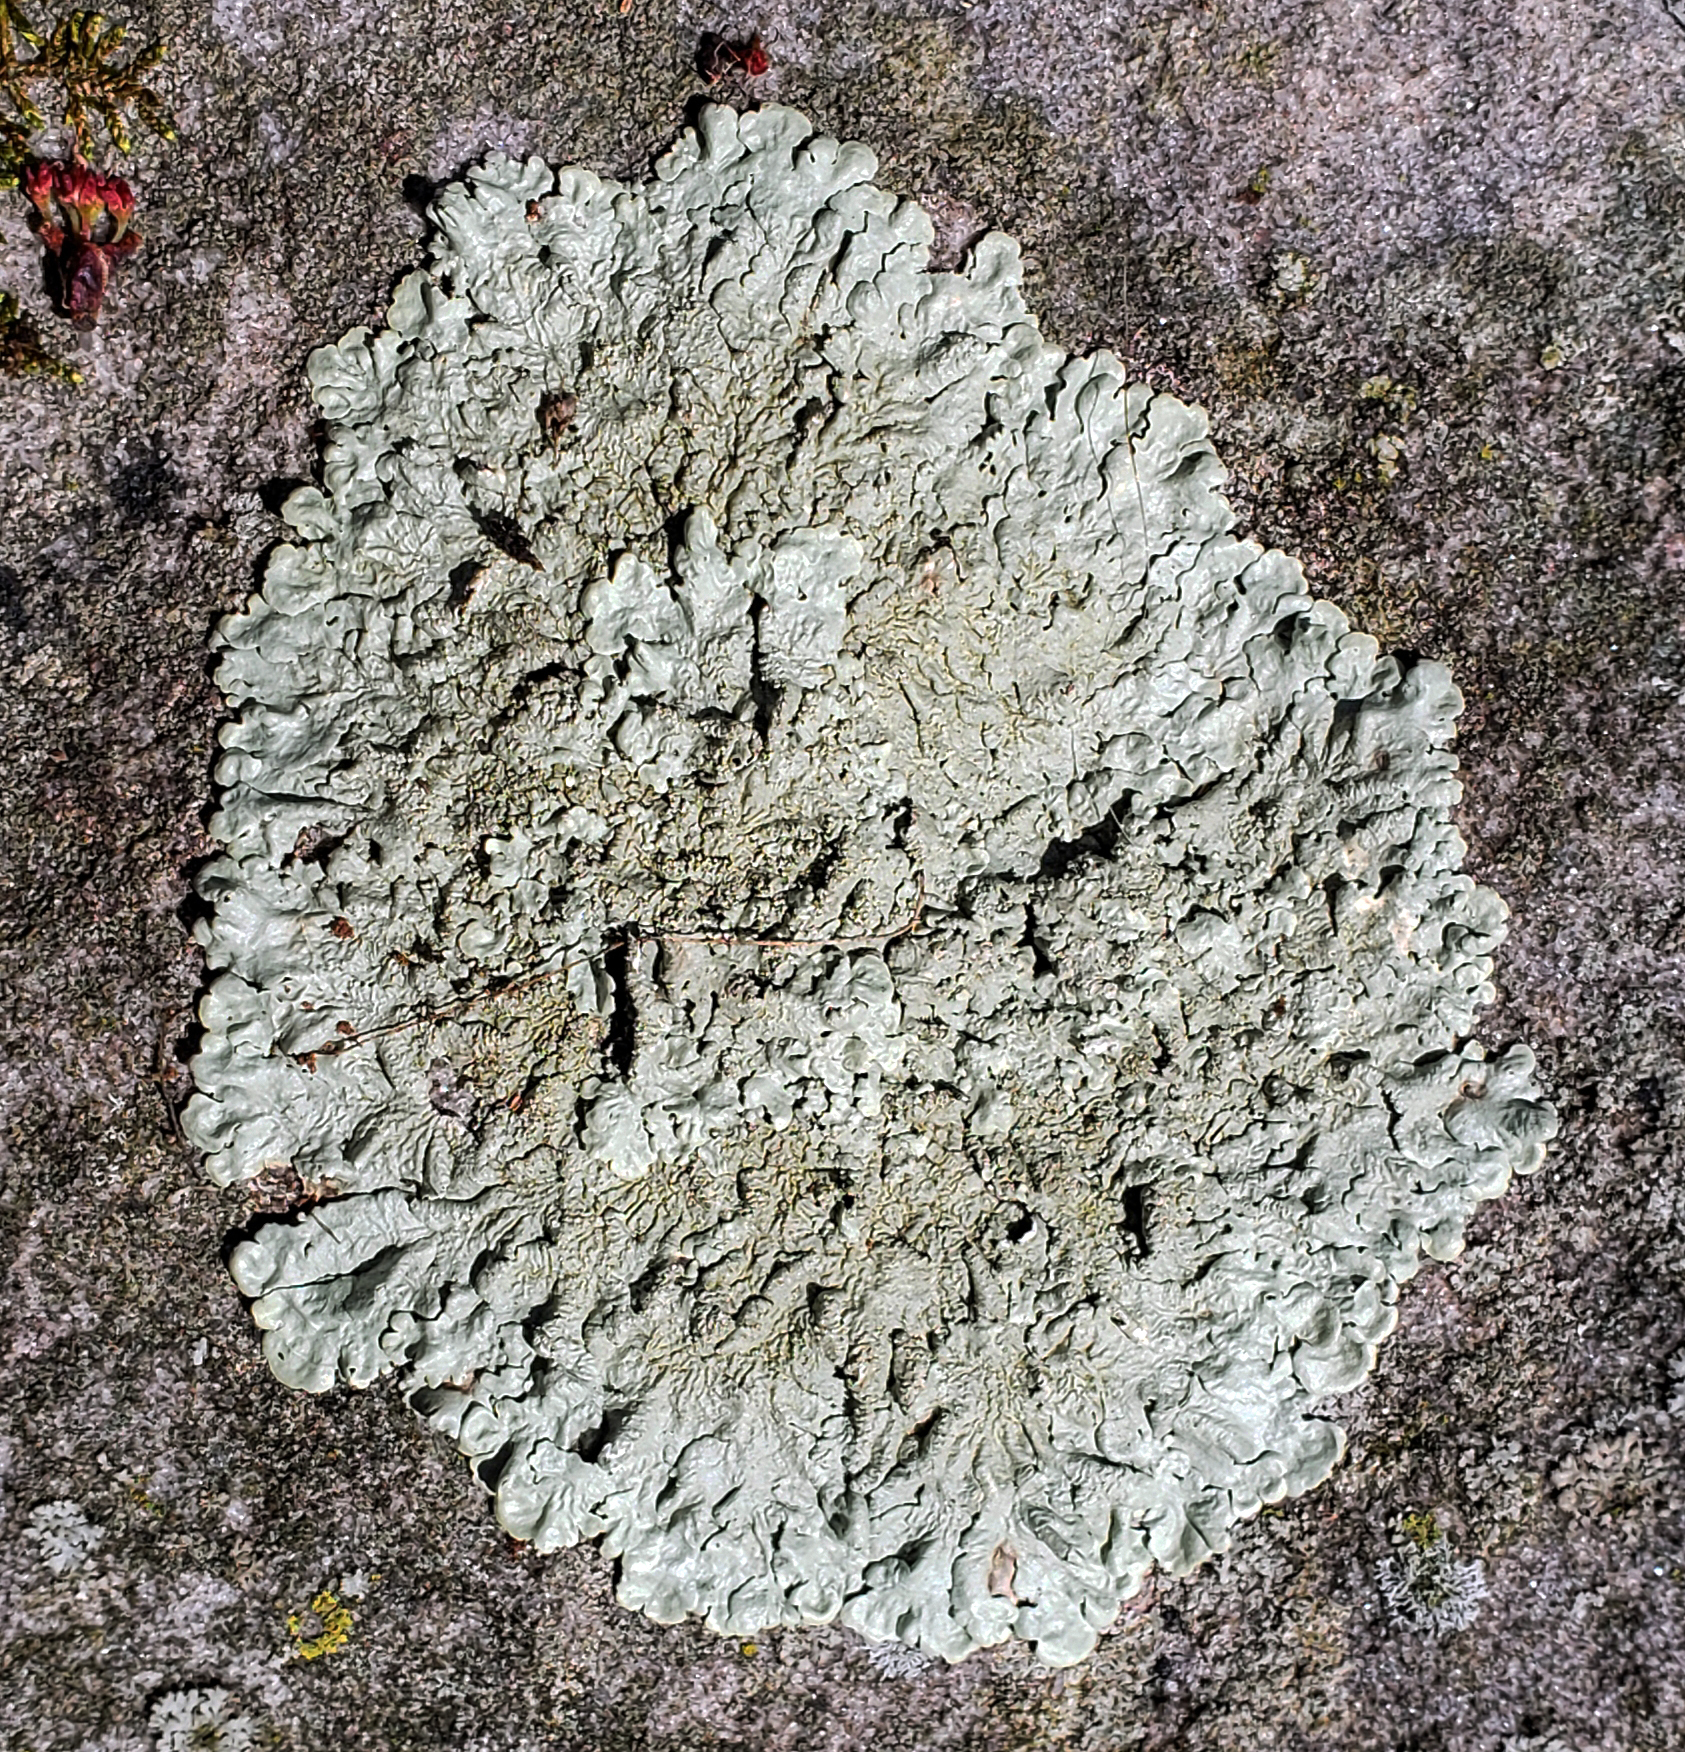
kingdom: Fungi
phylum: Ascomycota
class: Lecanoromycetes
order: Lecanorales
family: Parmeliaceae
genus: Flavoparmelia
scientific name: Flavoparmelia baltimorensis
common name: Rock greenshield
